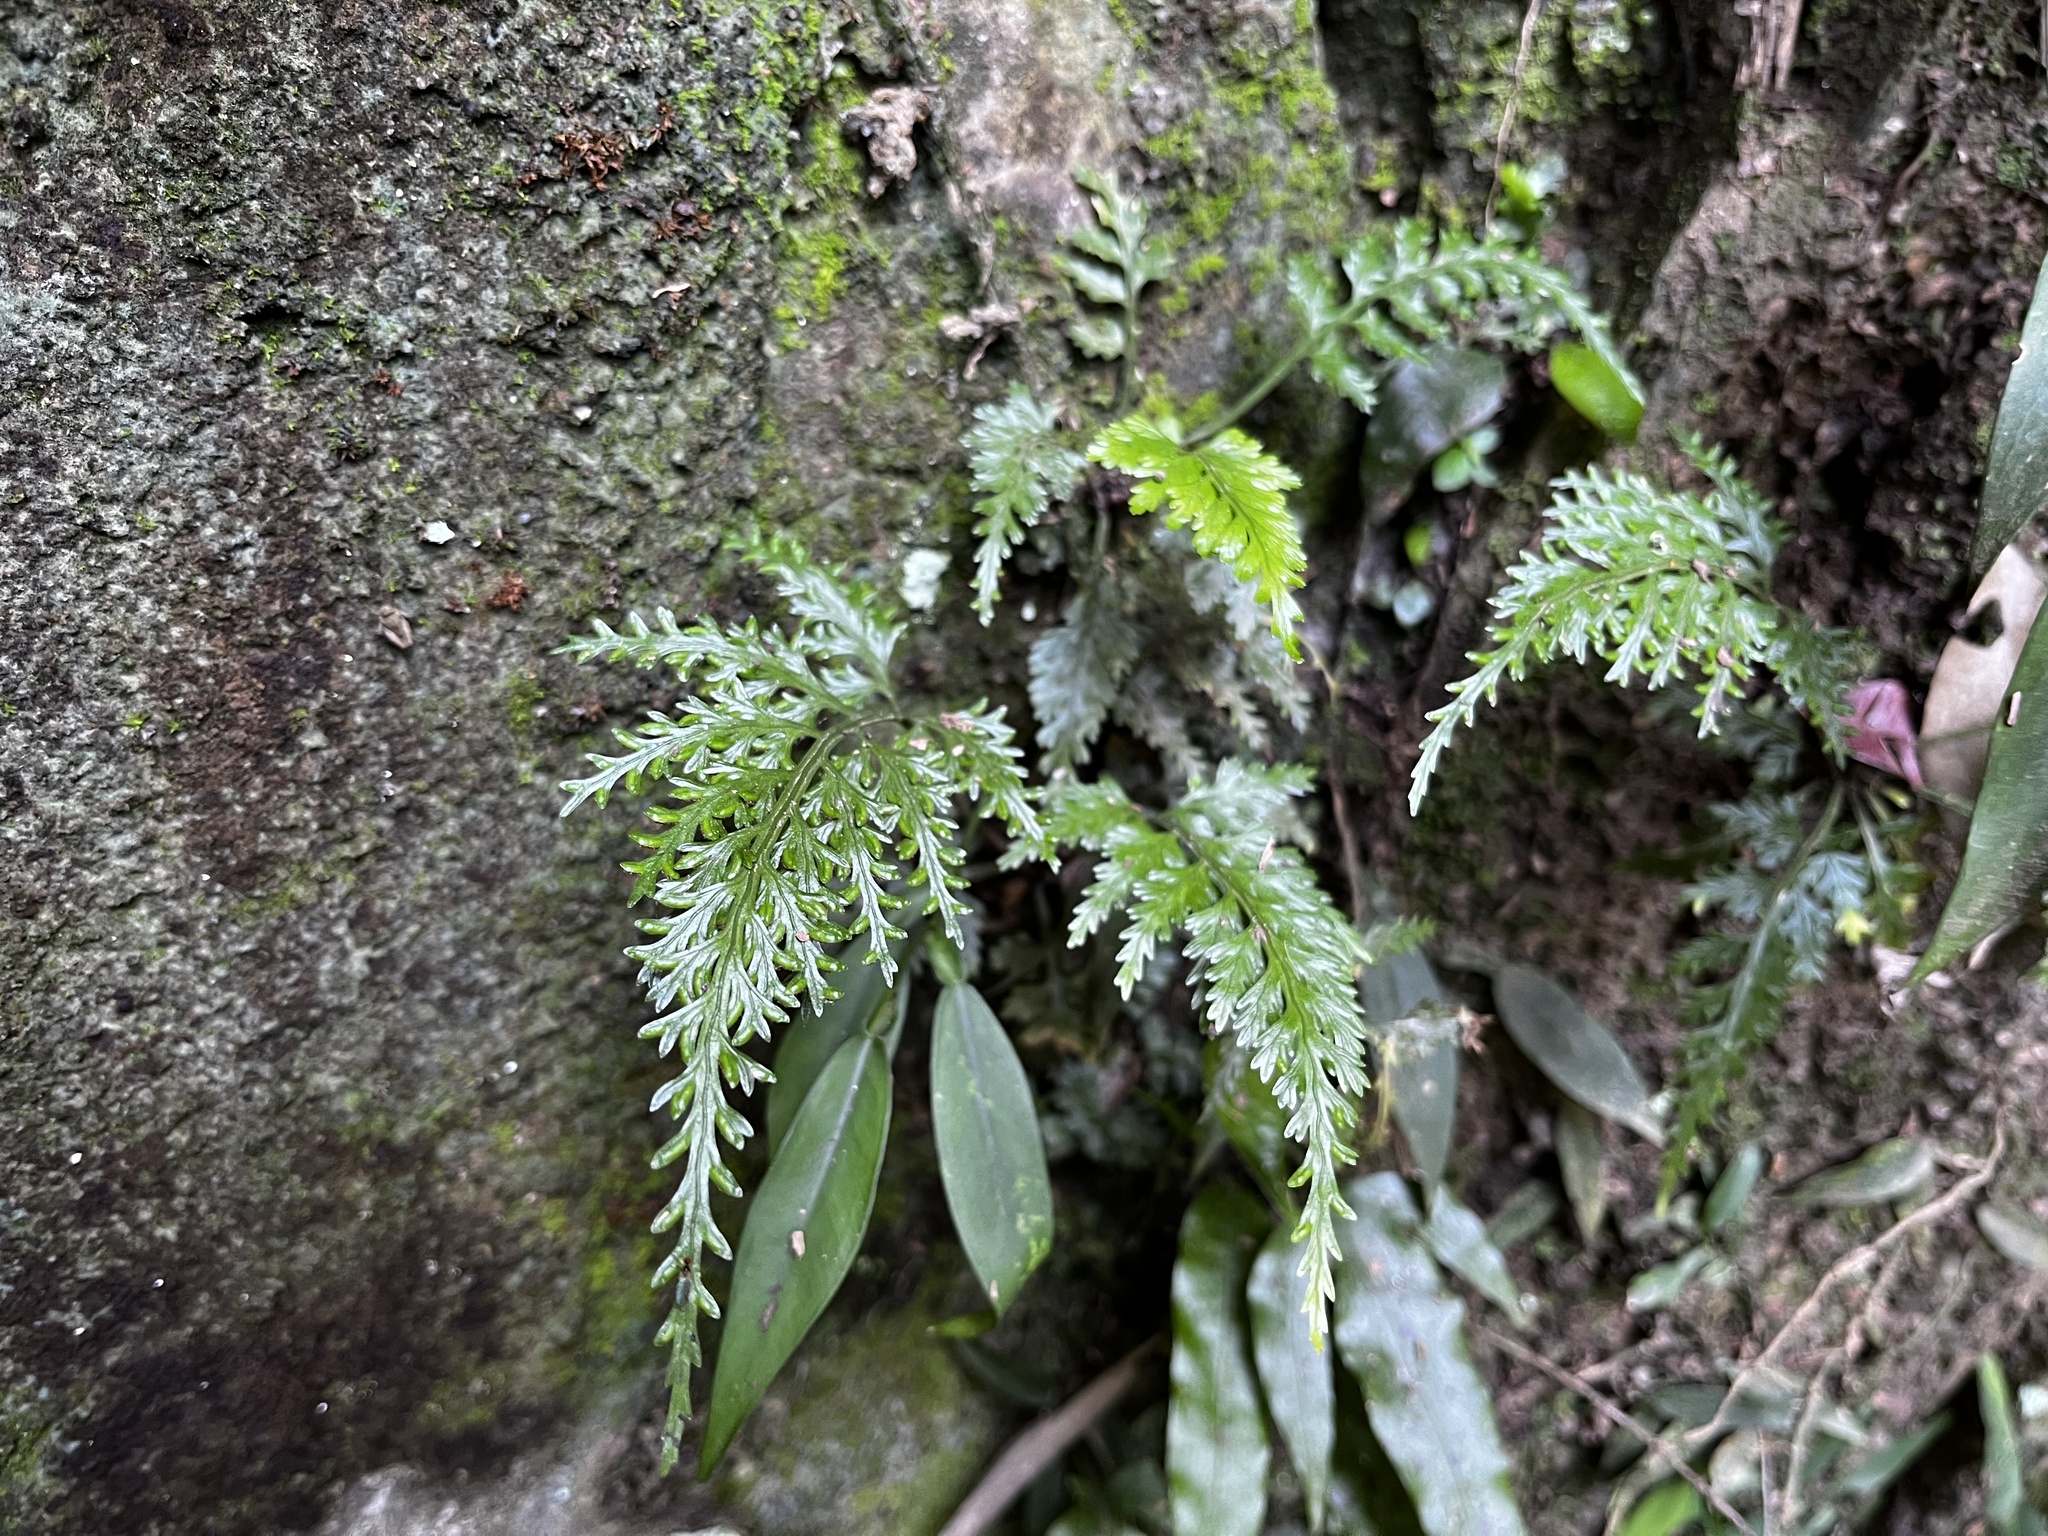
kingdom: Plantae
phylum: Tracheophyta
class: Polypodiopsida
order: Polypodiales
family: Aspleniaceae
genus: Asplenium
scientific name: Asplenium ritoense
